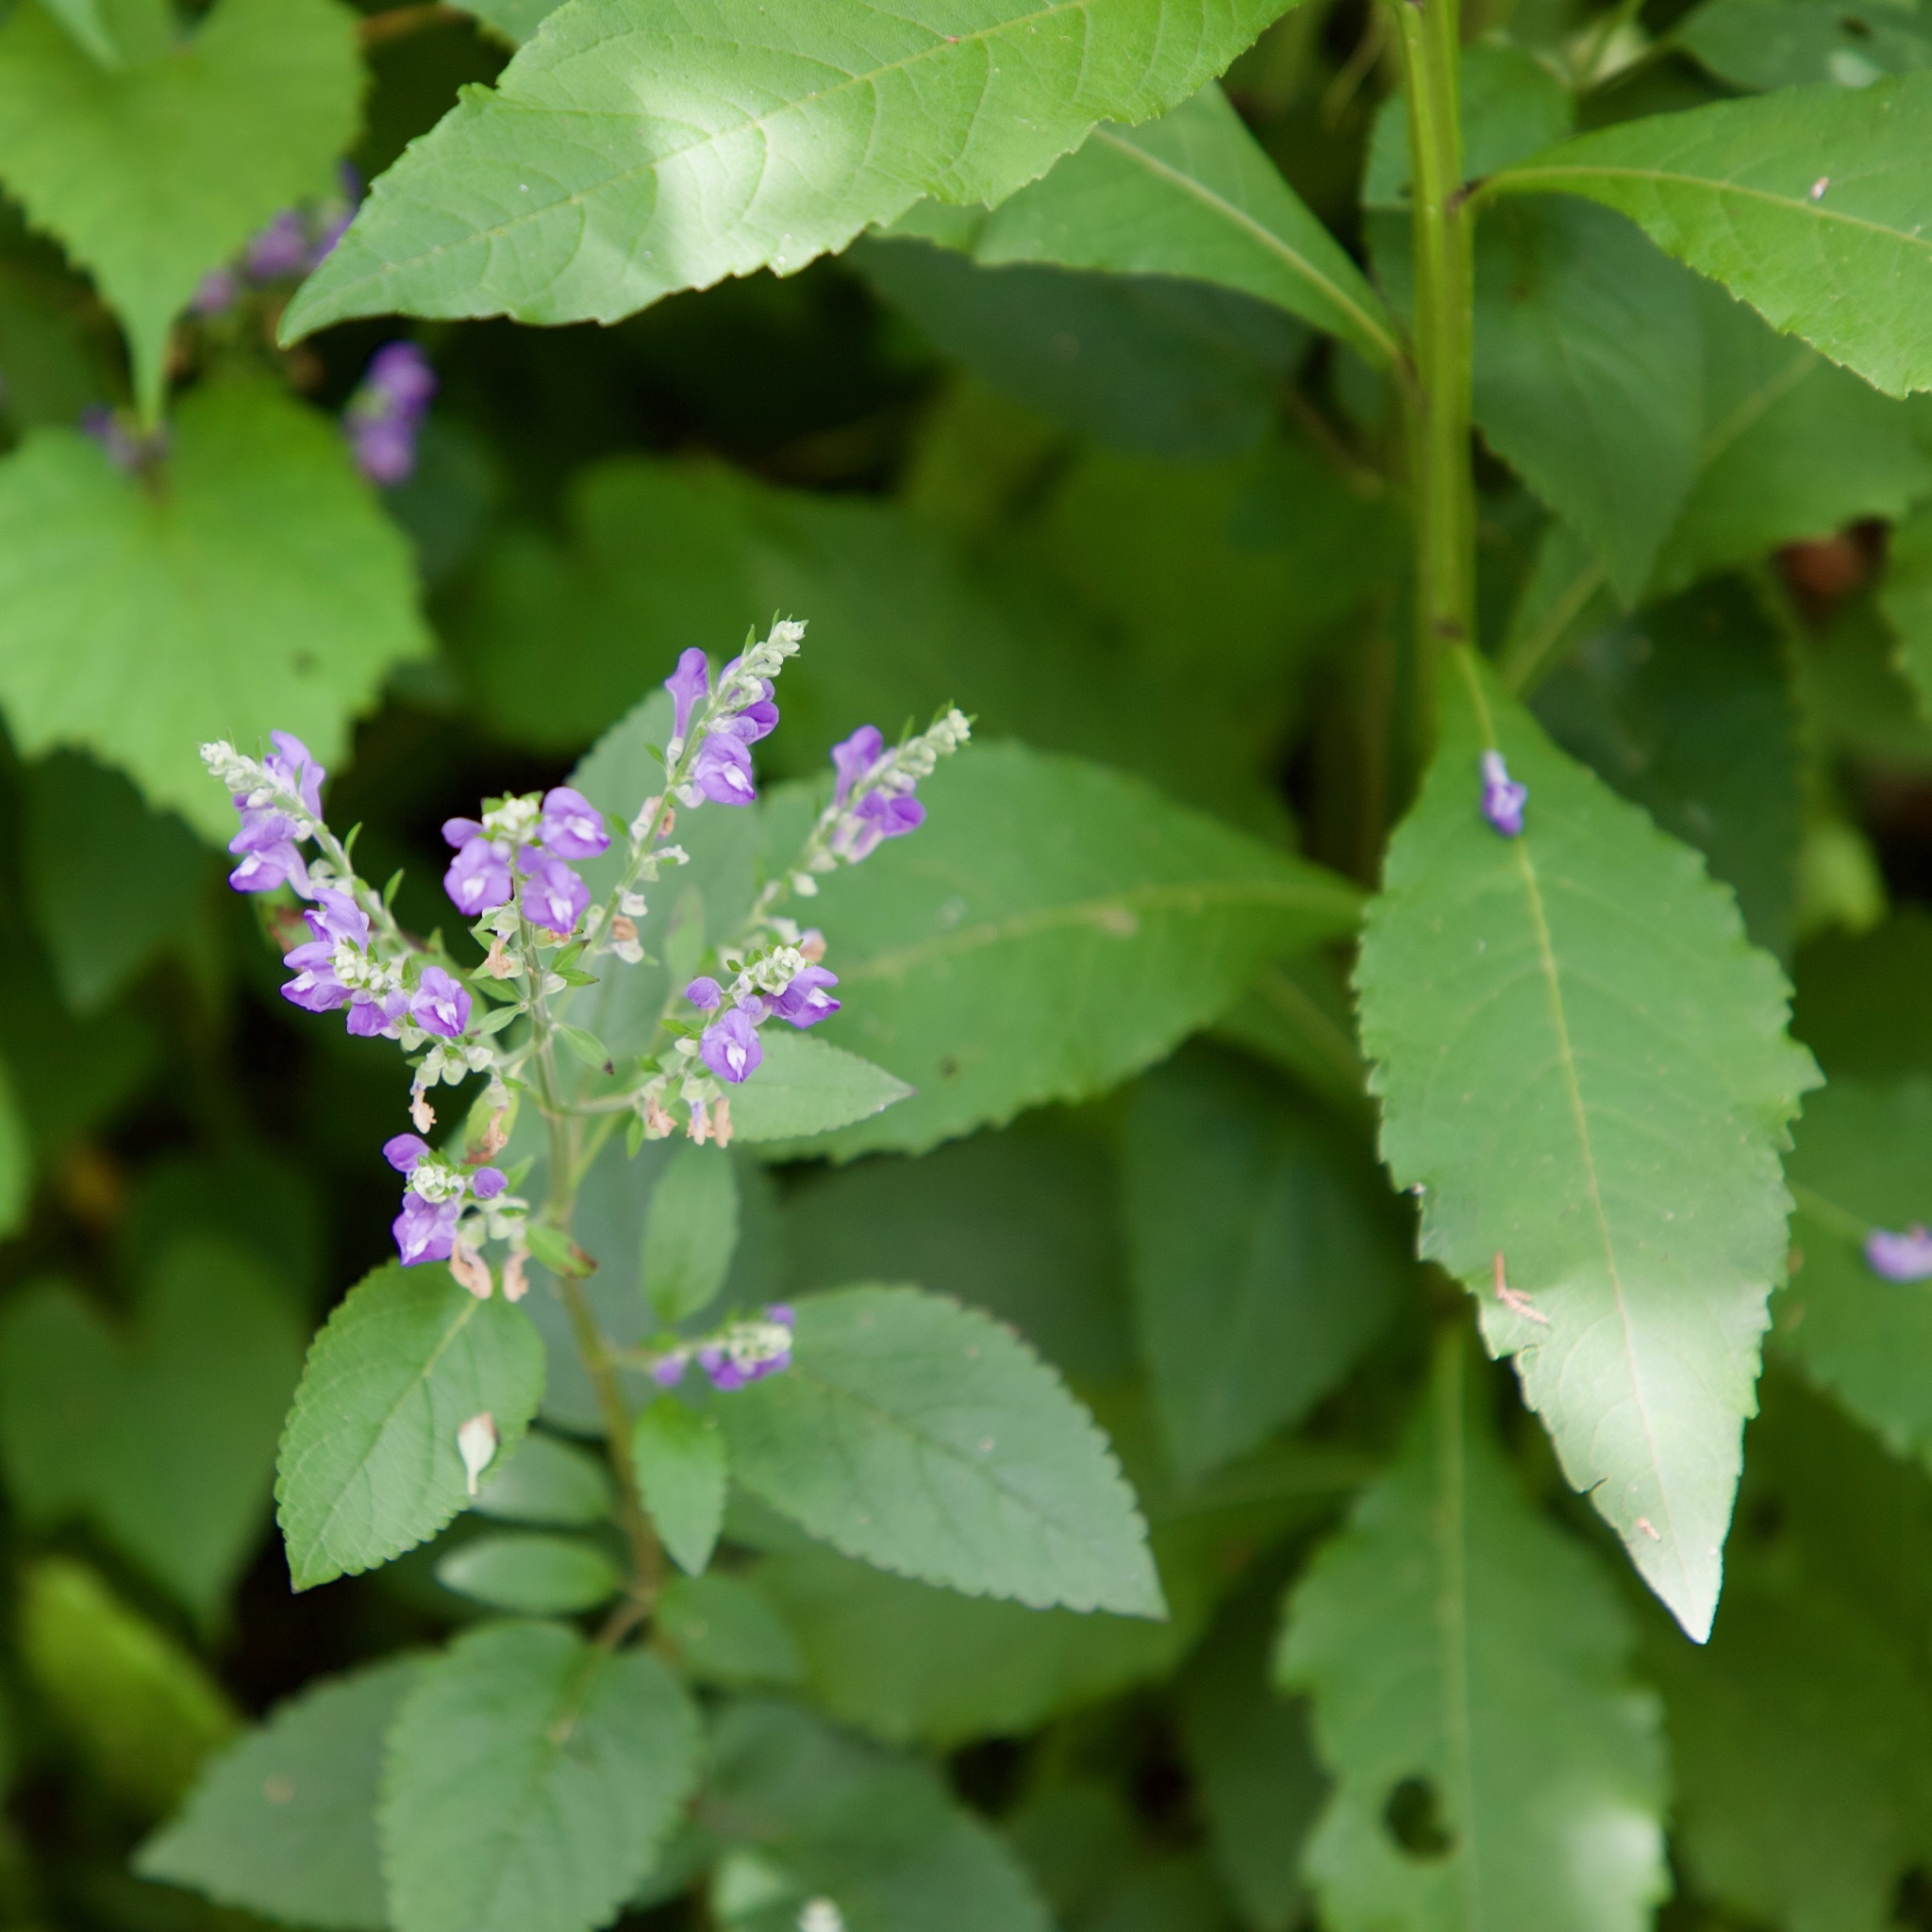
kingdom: Plantae
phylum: Tracheophyta
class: Magnoliopsida
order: Lamiales
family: Lamiaceae
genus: Scutellaria
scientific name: Scutellaria incana
